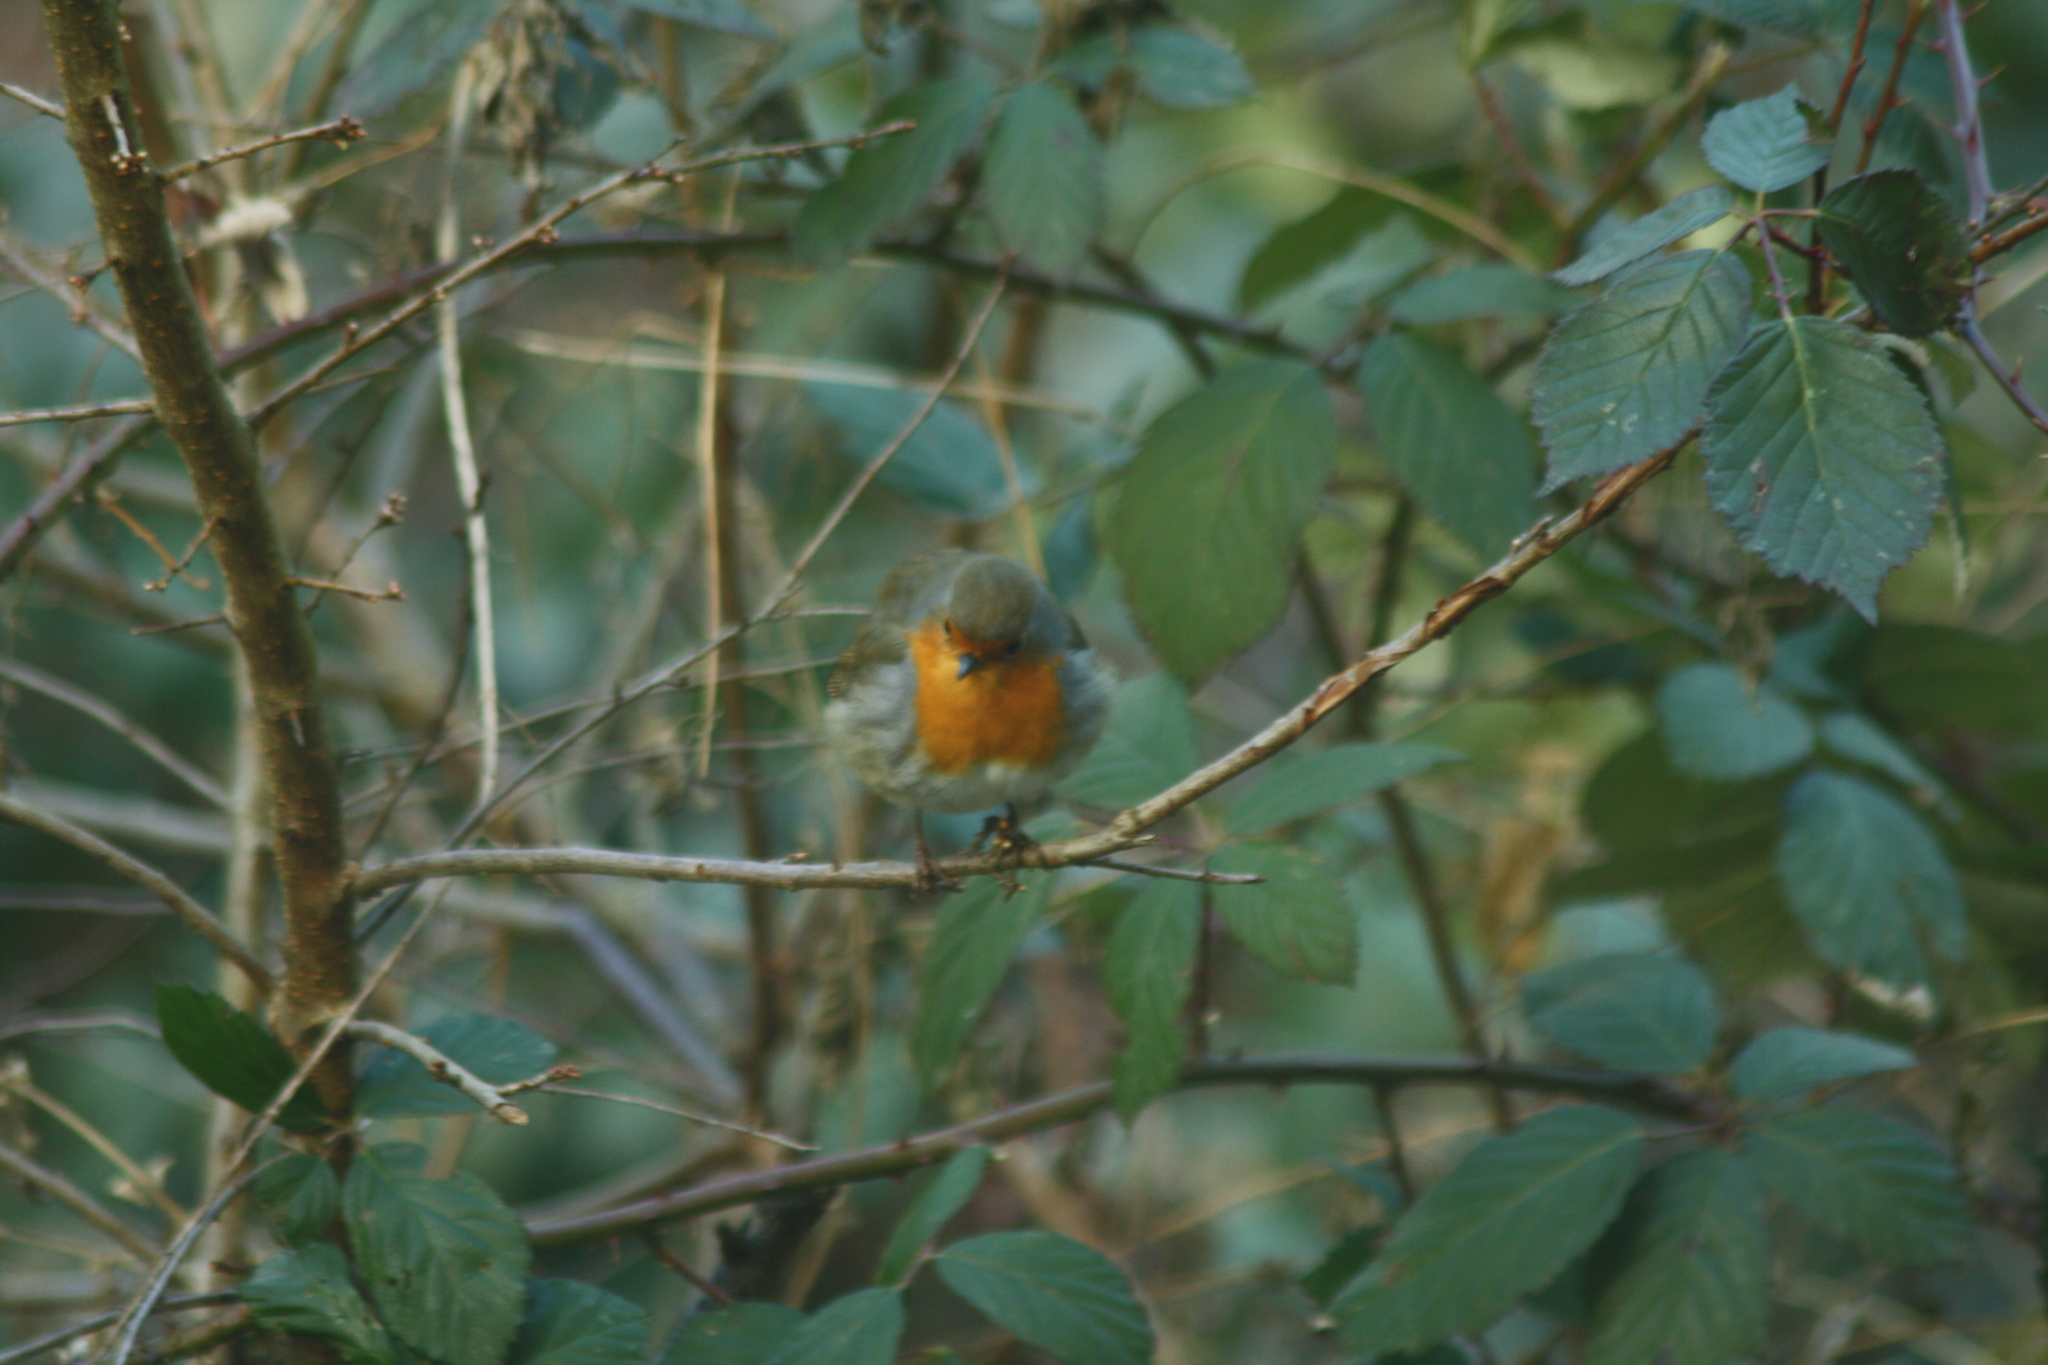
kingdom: Animalia
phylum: Chordata
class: Aves
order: Passeriformes
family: Muscicapidae
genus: Erithacus
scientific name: Erithacus rubecula
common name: European robin
